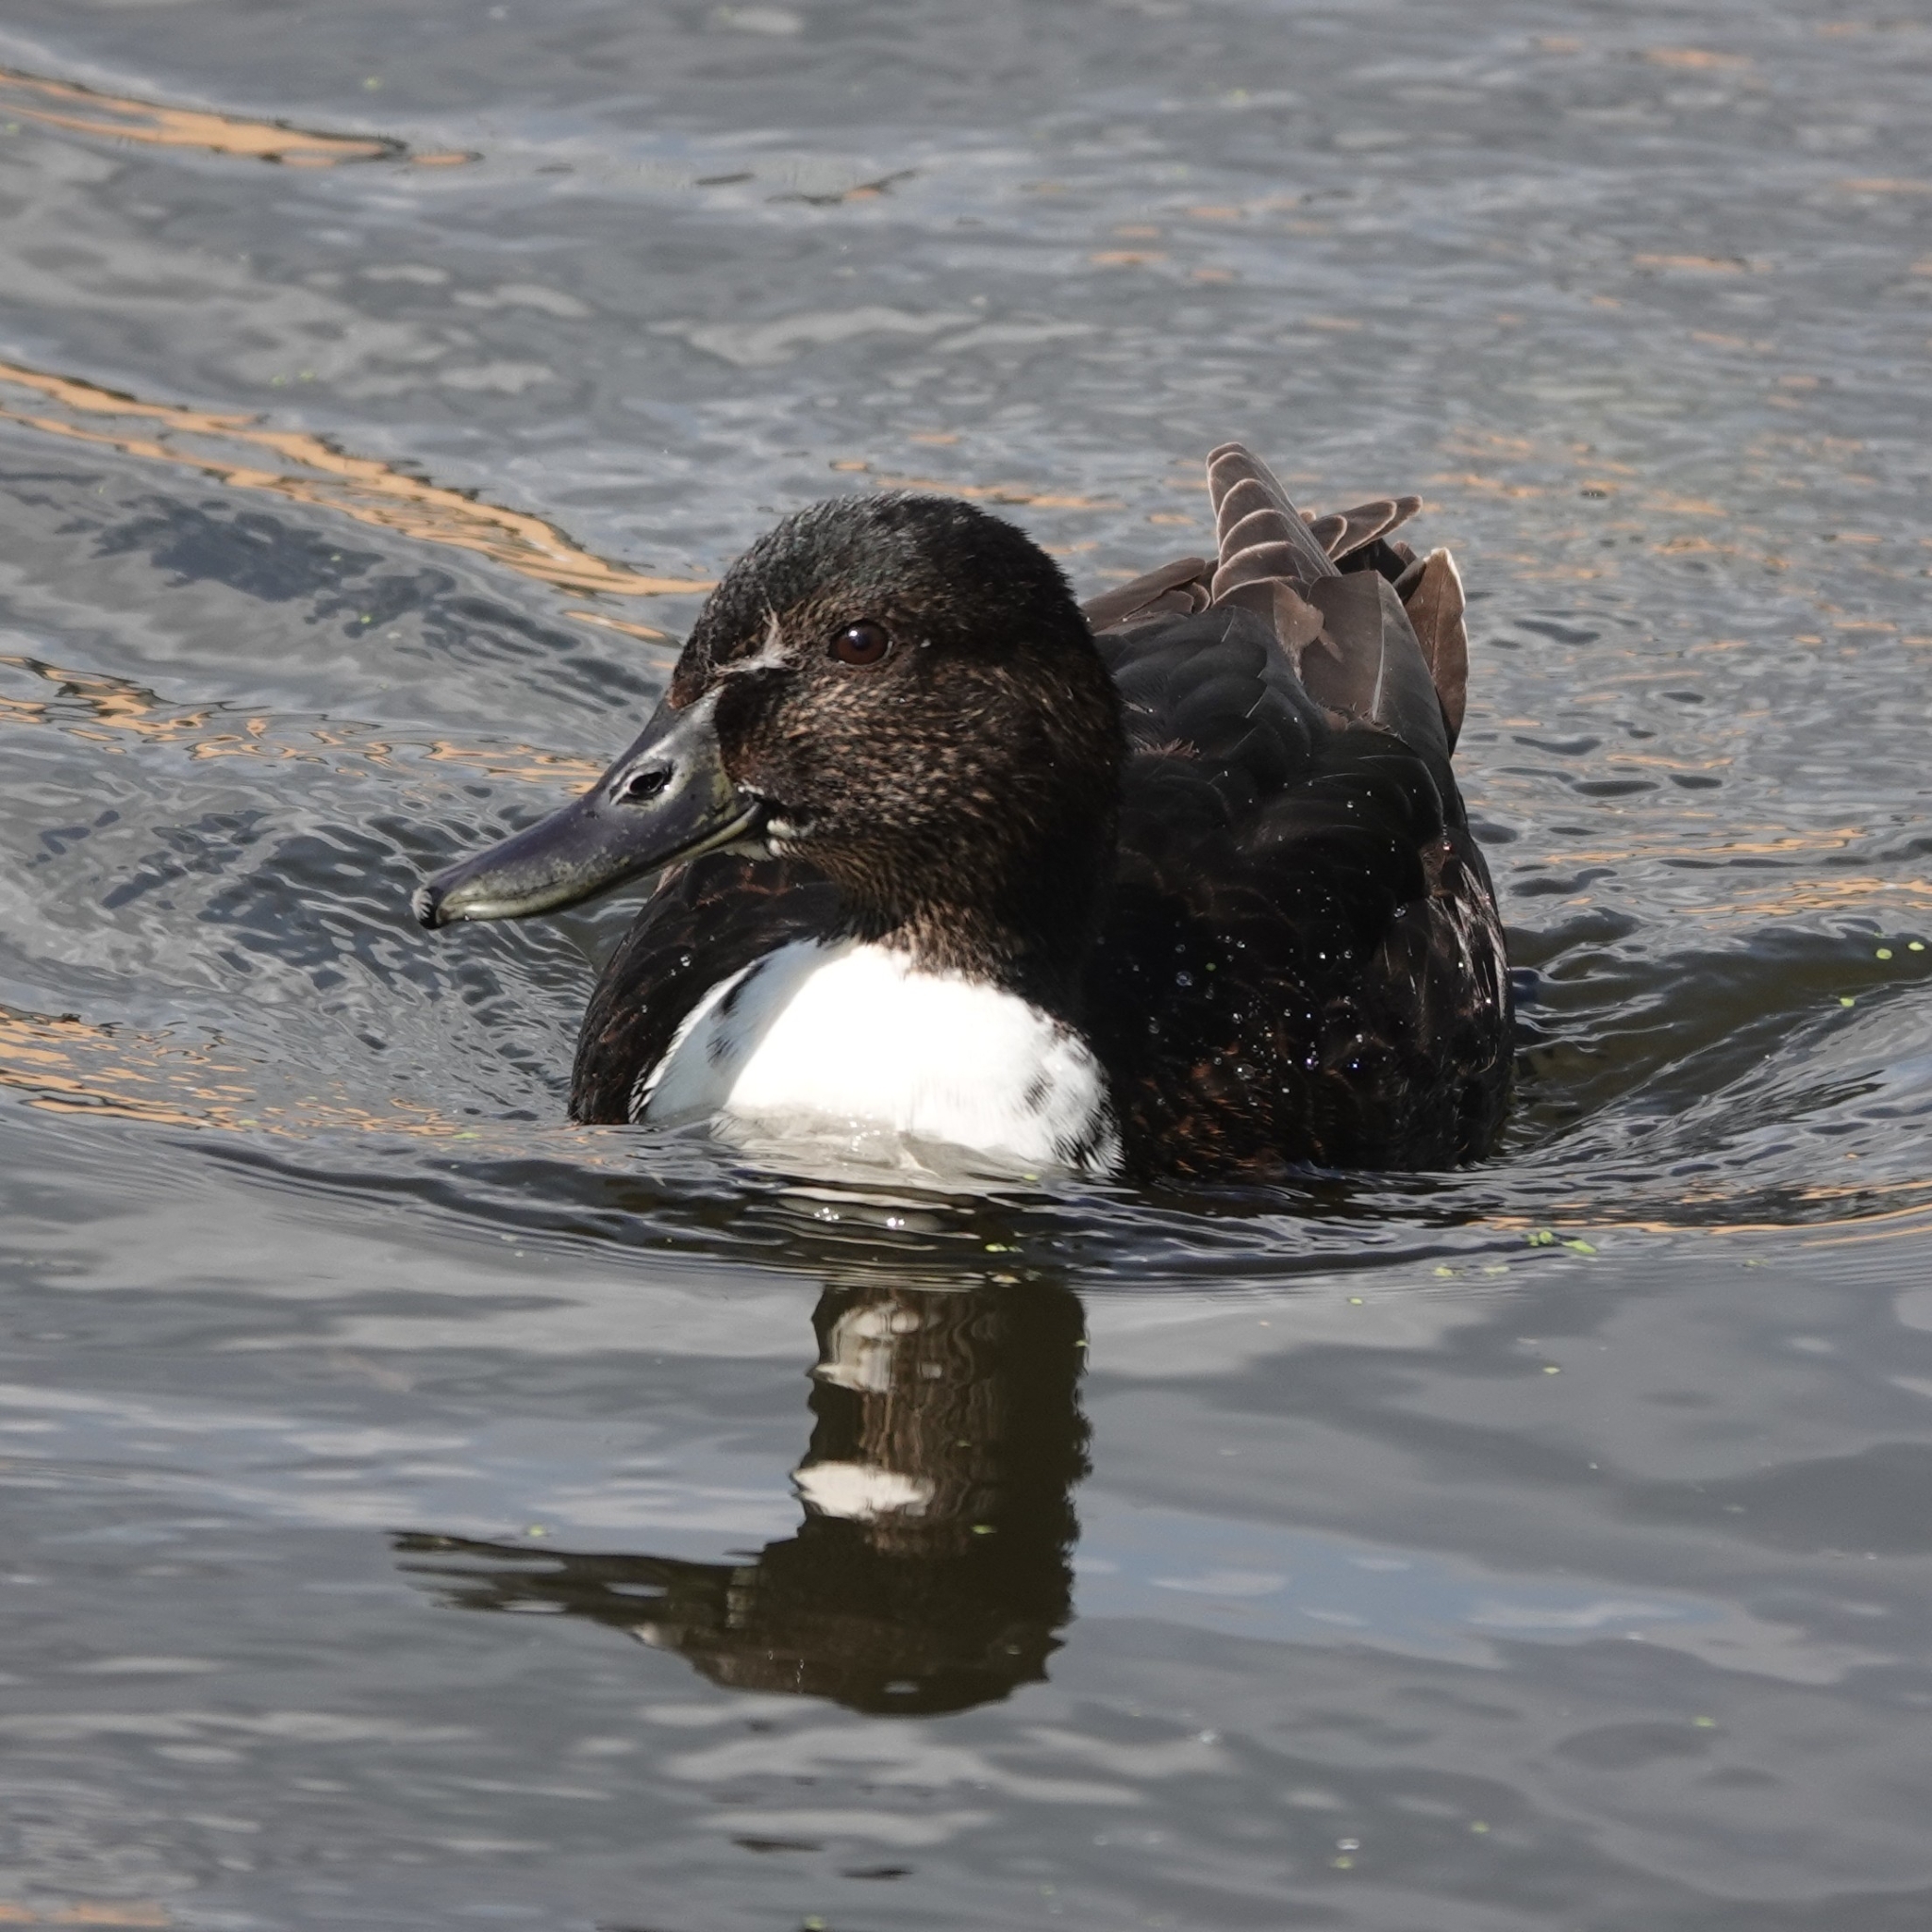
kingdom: Animalia
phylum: Chordata
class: Aves
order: Anseriformes
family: Anatidae
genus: Anas
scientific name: Anas platyrhynchos
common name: Mallard
